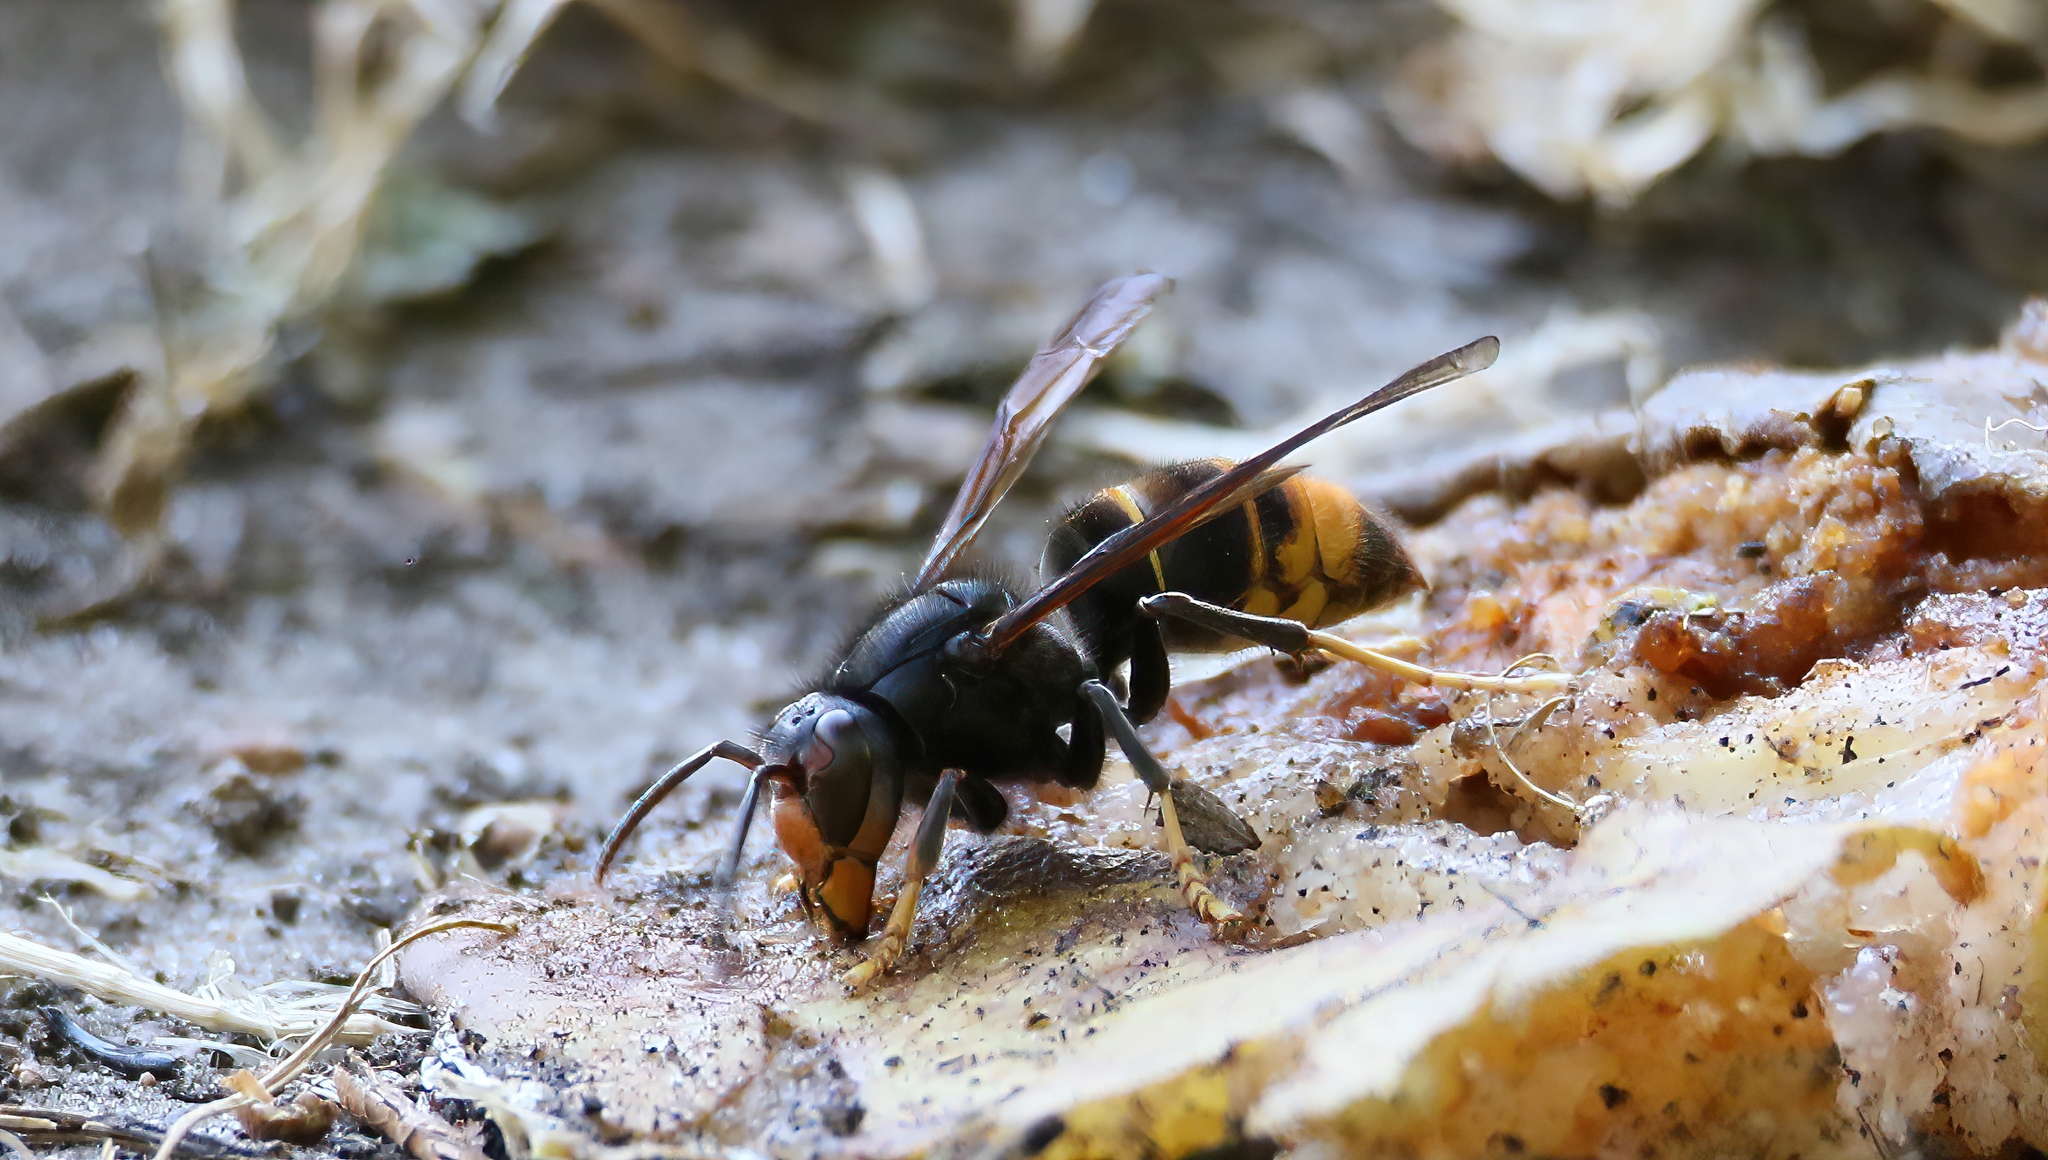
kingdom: Animalia
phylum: Arthropoda
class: Insecta
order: Hymenoptera
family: Vespidae
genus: Vespa
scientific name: Vespa velutina
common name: Asian hornet
